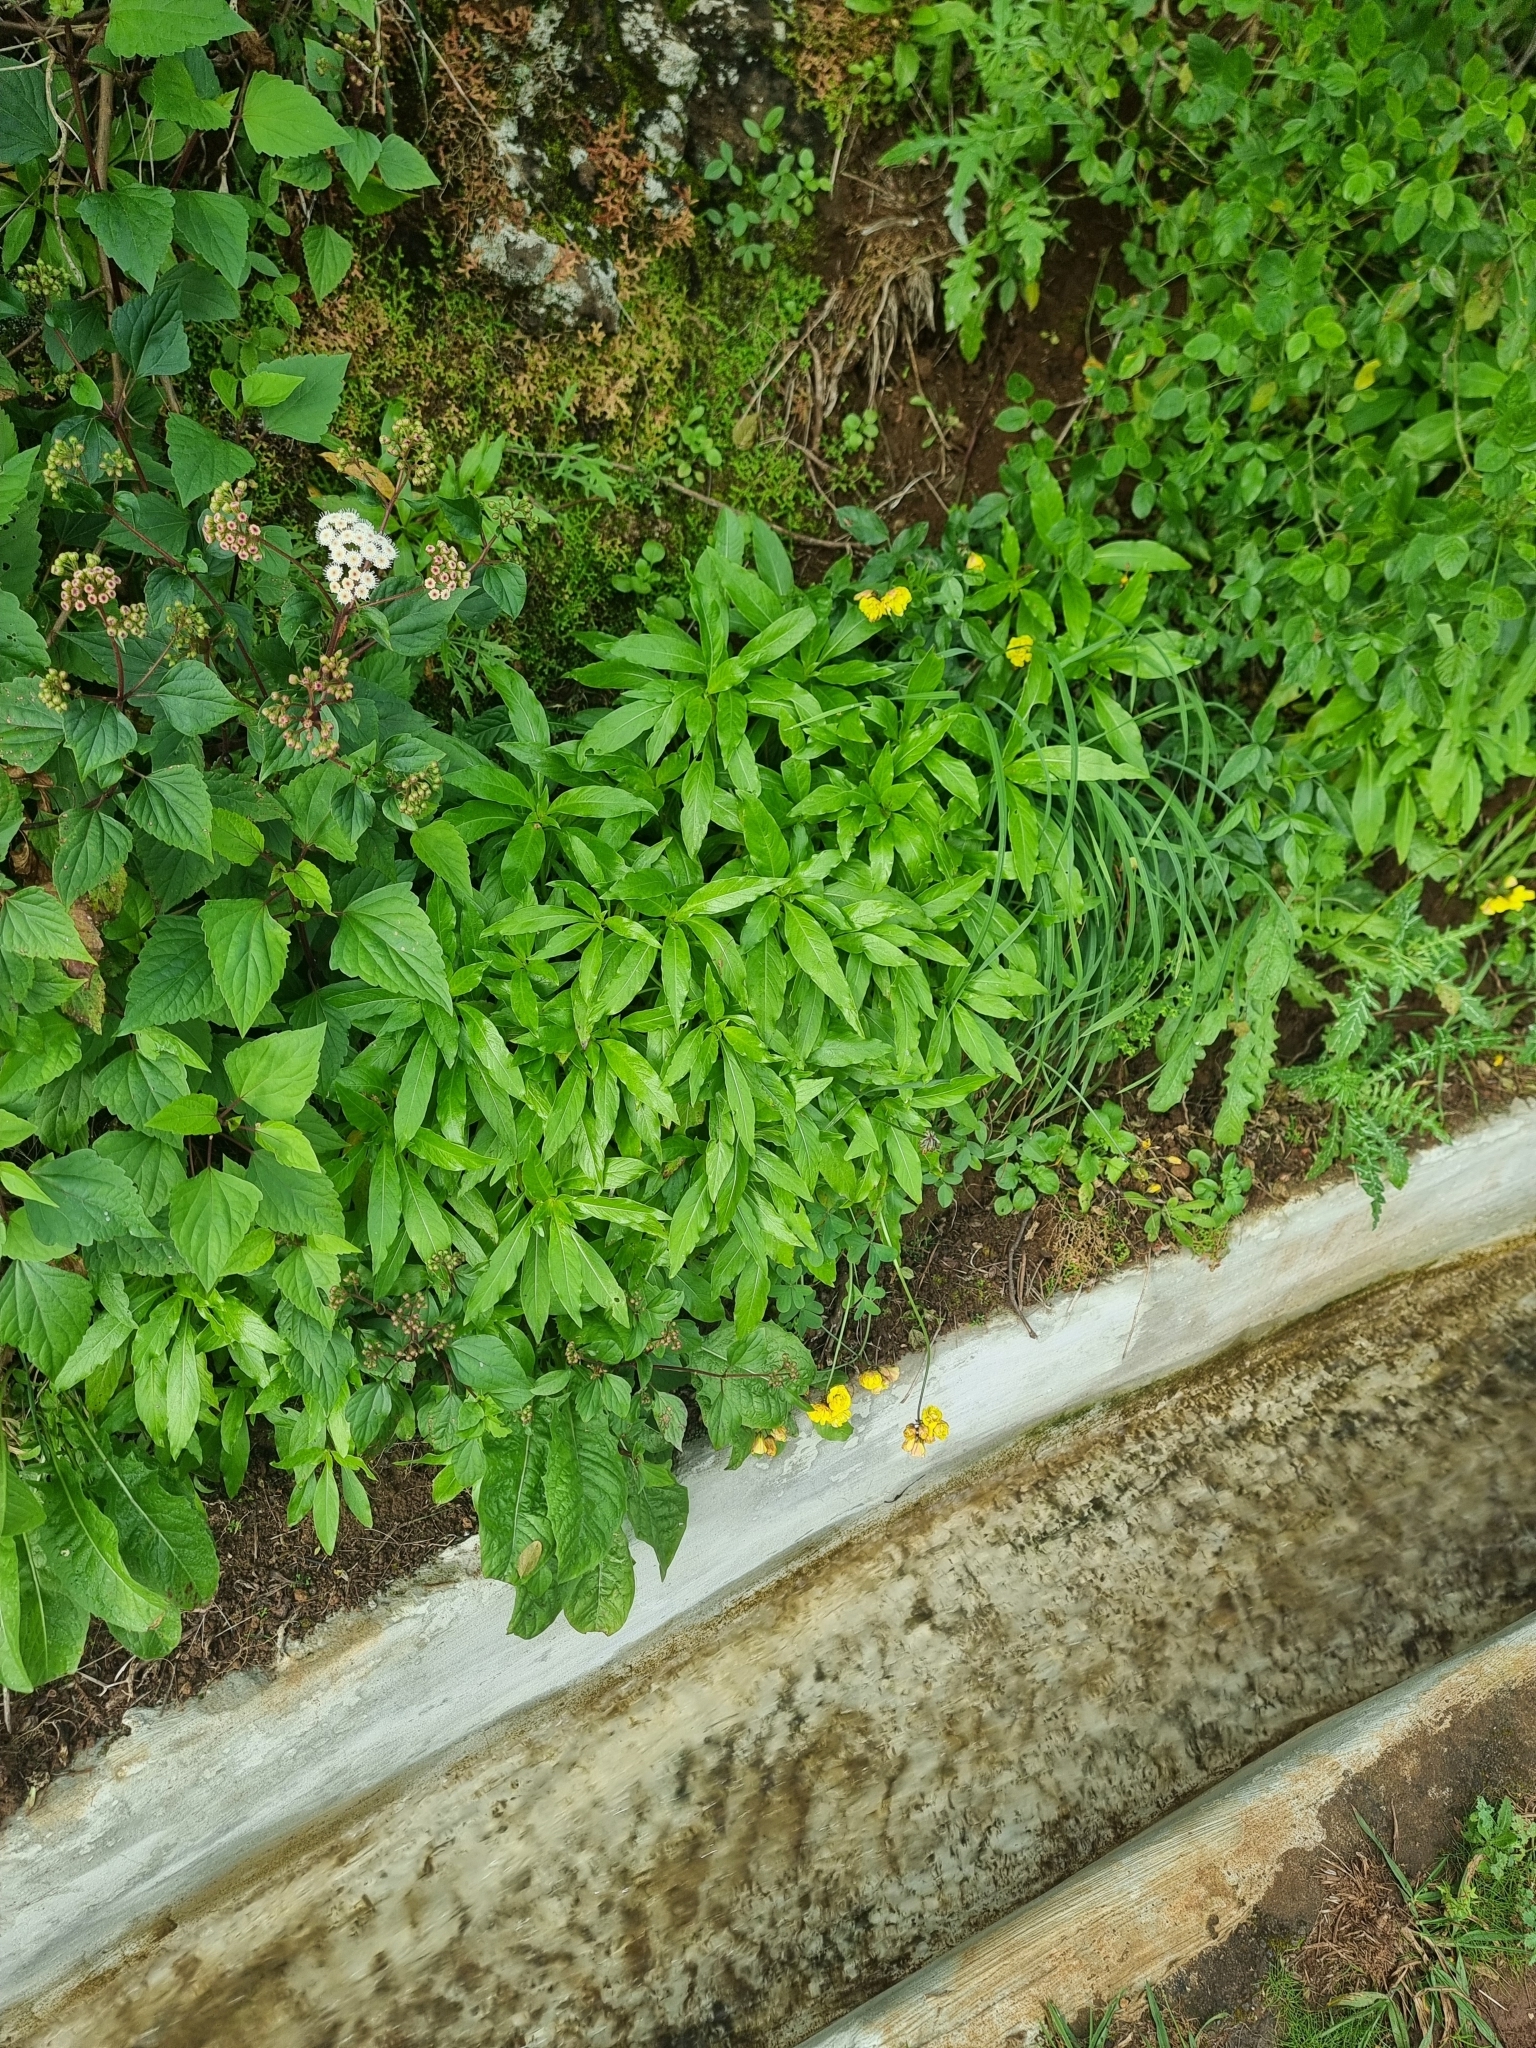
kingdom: Plantae
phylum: Tracheophyta
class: Magnoliopsida
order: Gentianales
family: Rubiaceae
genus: Phyllis
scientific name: Phyllis nobla
